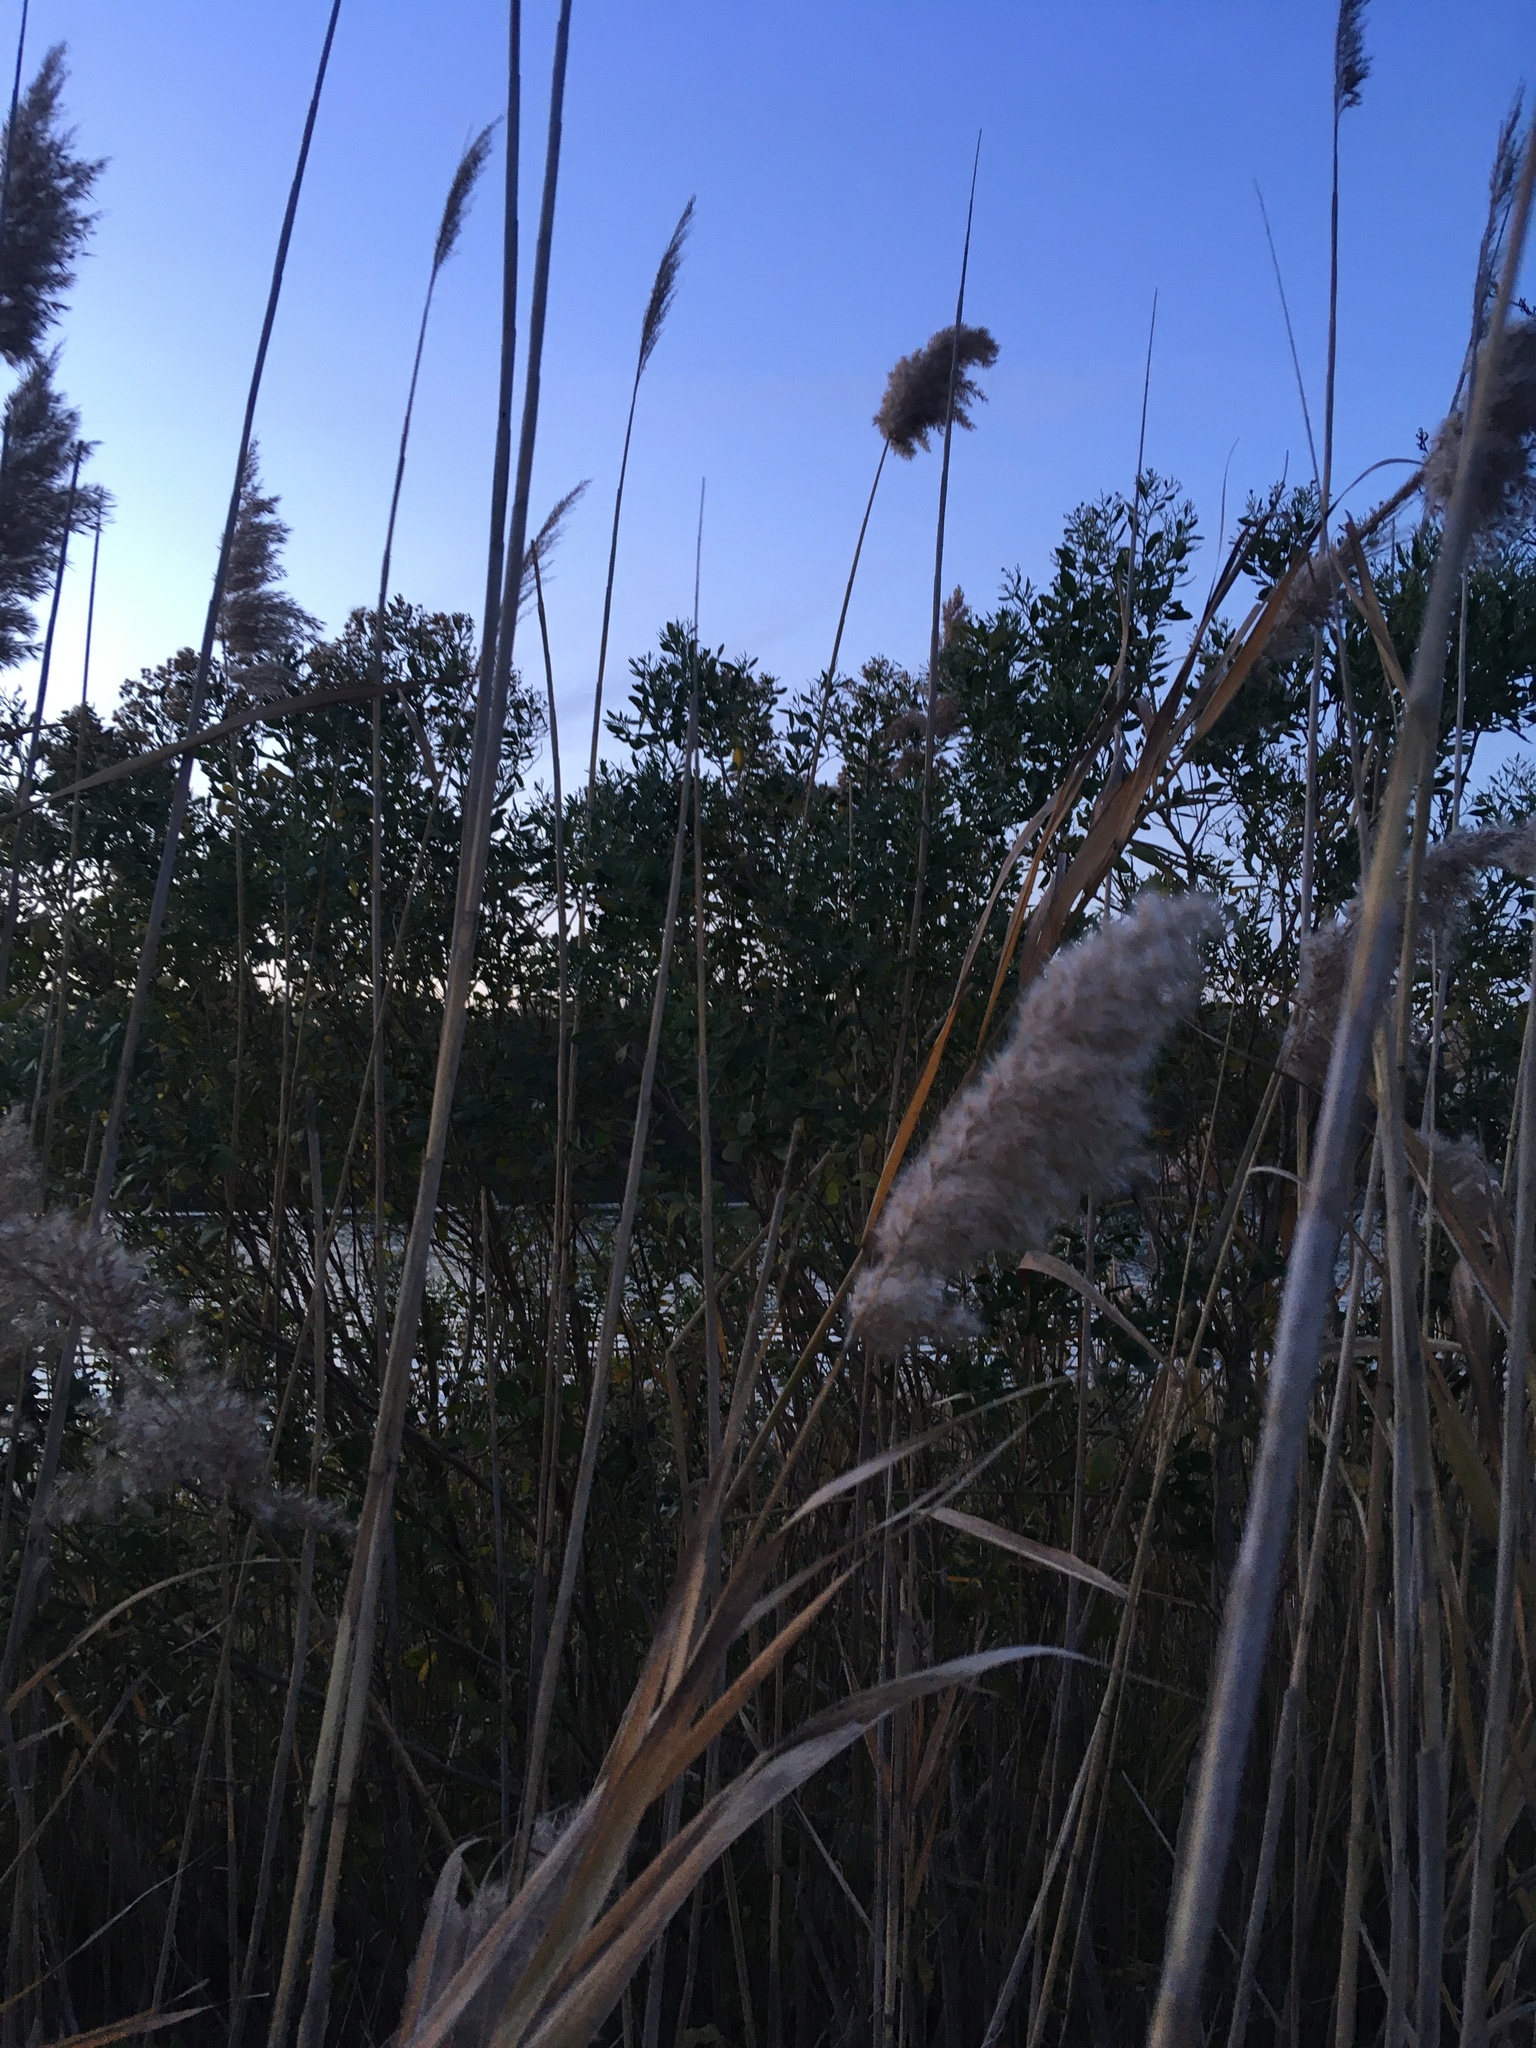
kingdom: Plantae
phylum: Tracheophyta
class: Magnoliopsida
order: Asterales
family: Asteraceae
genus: Baccharis
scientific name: Baccharis halimifolia
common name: Eastern baccharis
